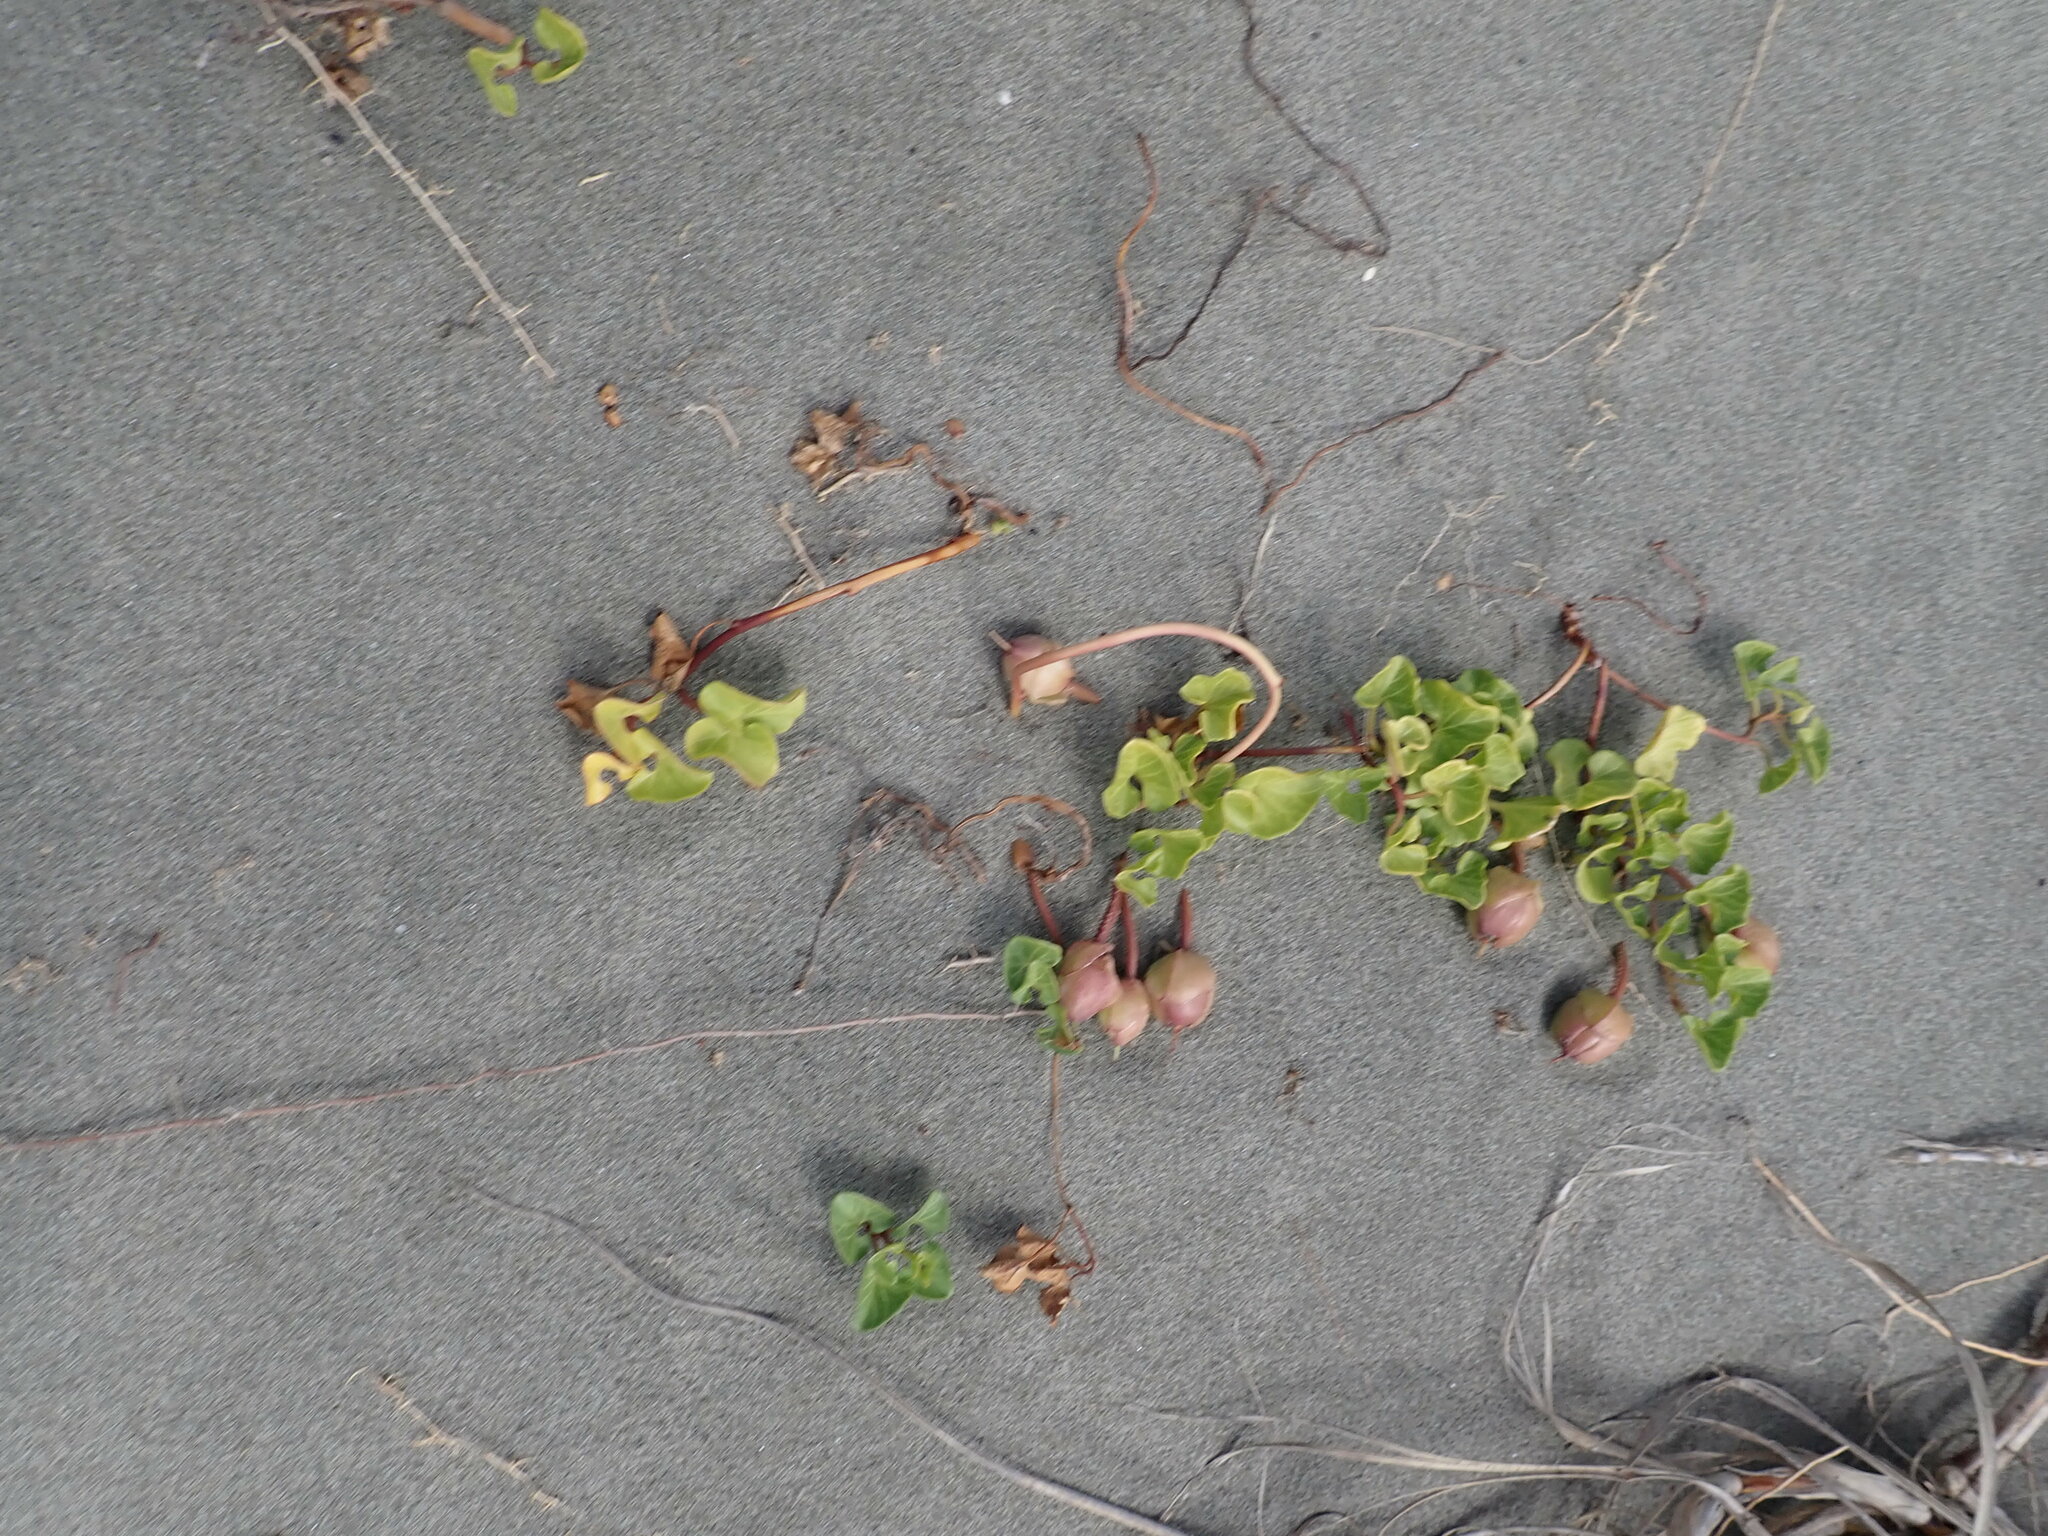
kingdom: Plantae
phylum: Tracheophyta
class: Magnoliopsida
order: Solanales
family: Convolvulaceae
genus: Calystegia
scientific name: Calystegia soldanella
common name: Sea bindweed
